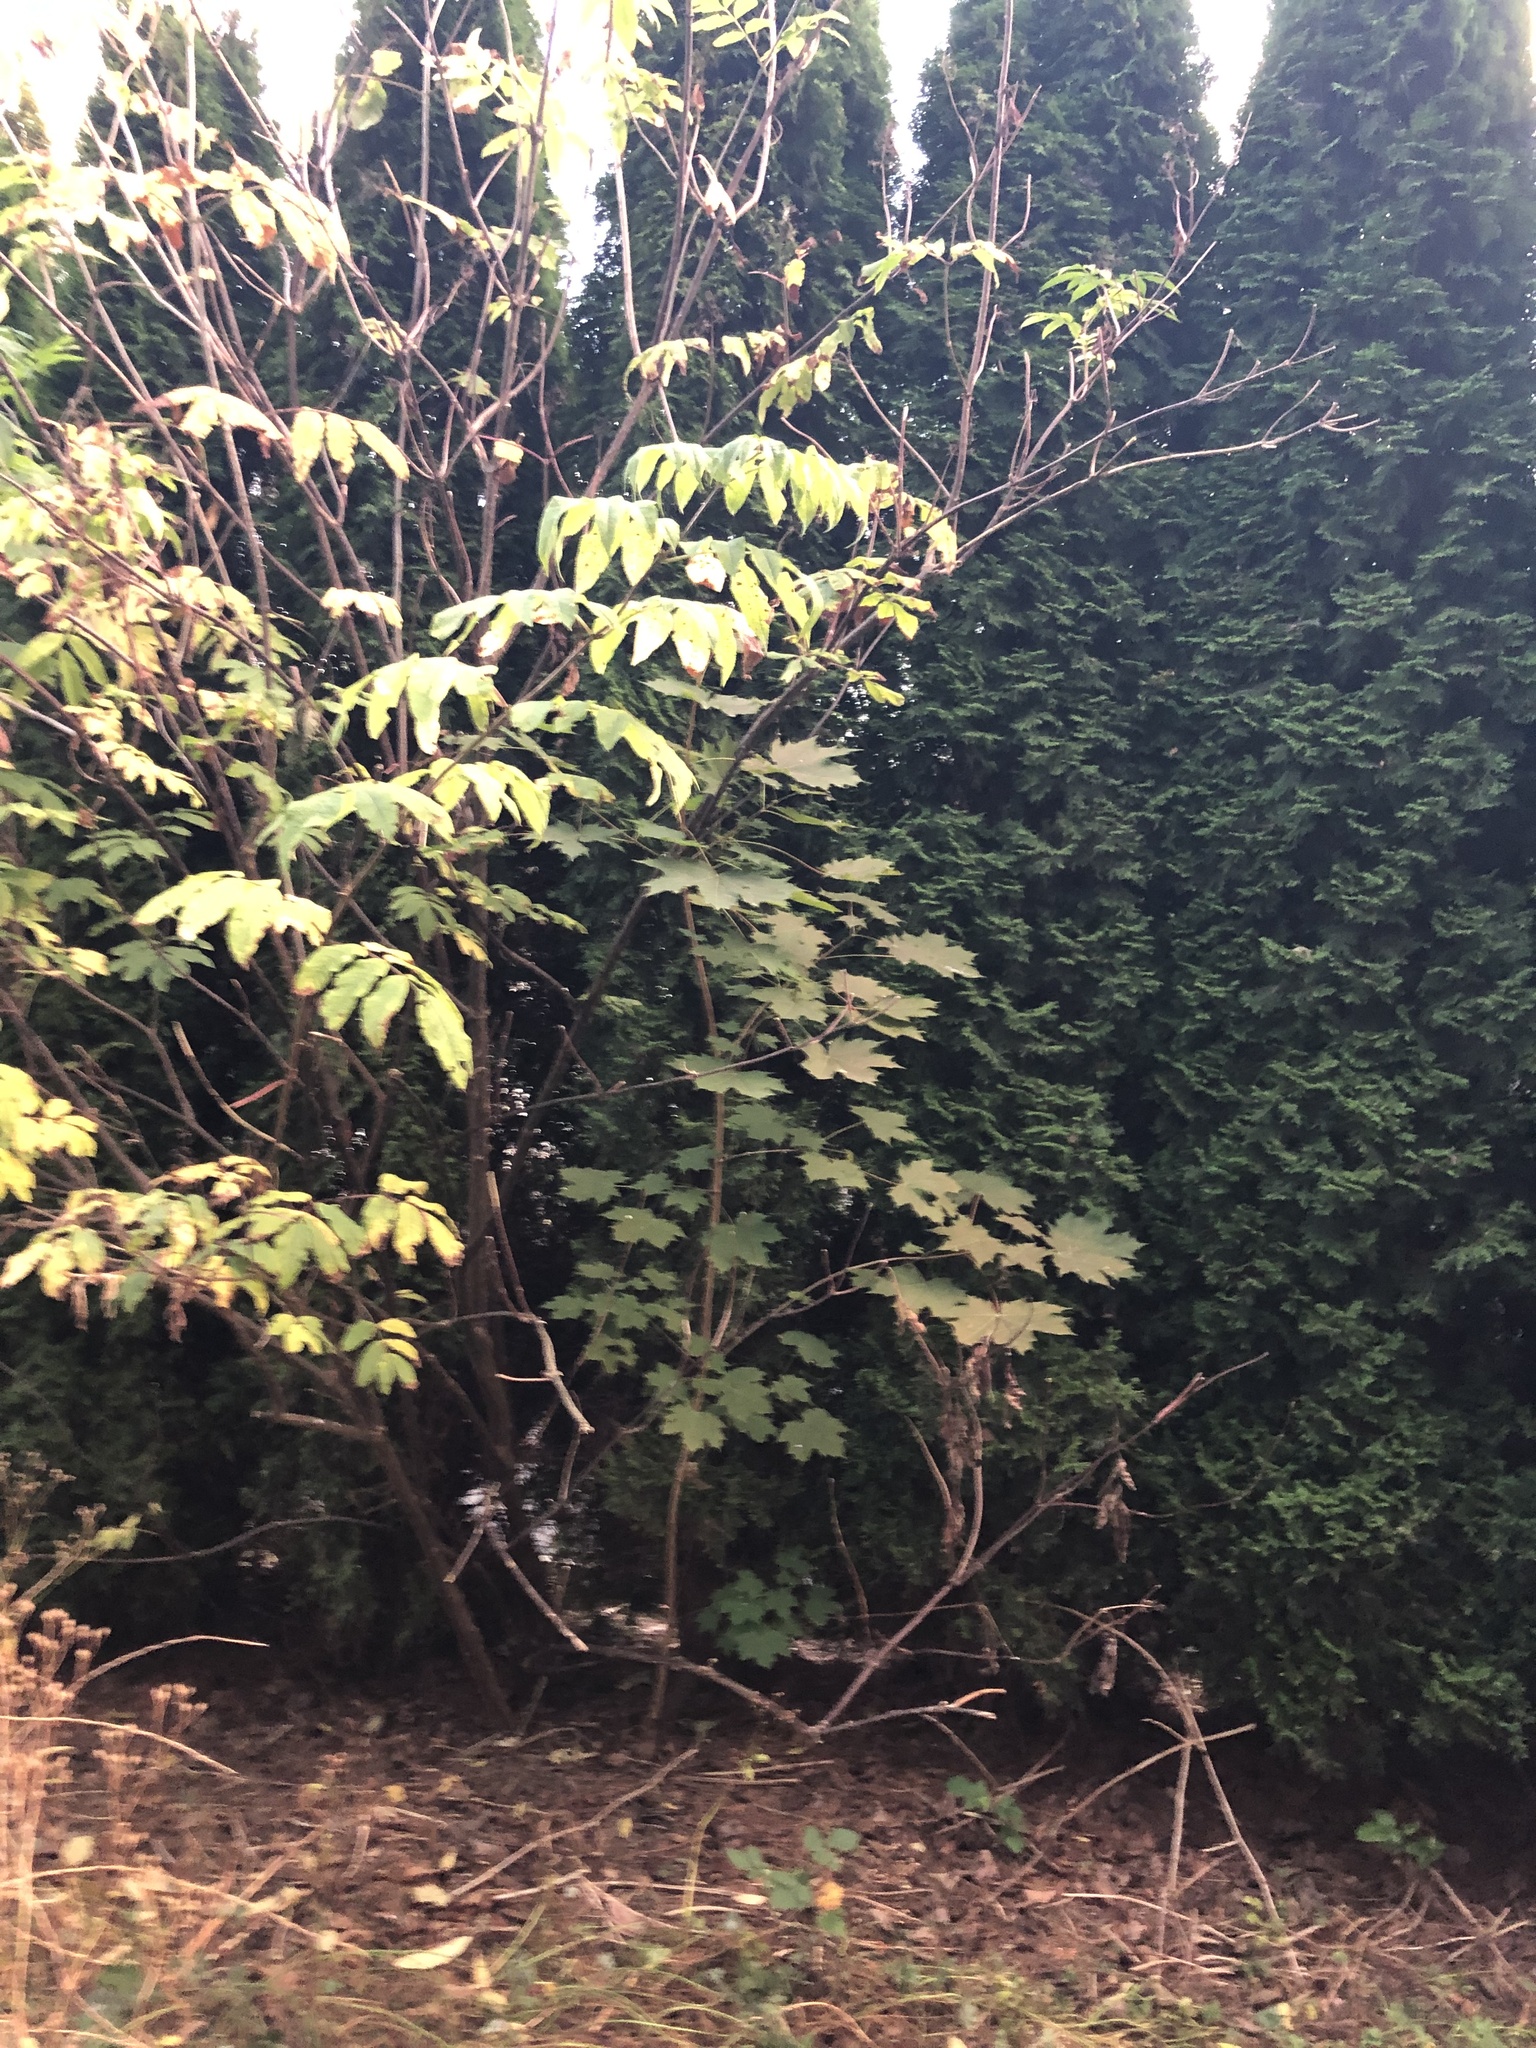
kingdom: Plantae
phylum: Tracheophyta
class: Magnoliopsida
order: Sapindales
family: Sapindaceae
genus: Acer
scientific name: Acer platanoides
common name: Norway maple
